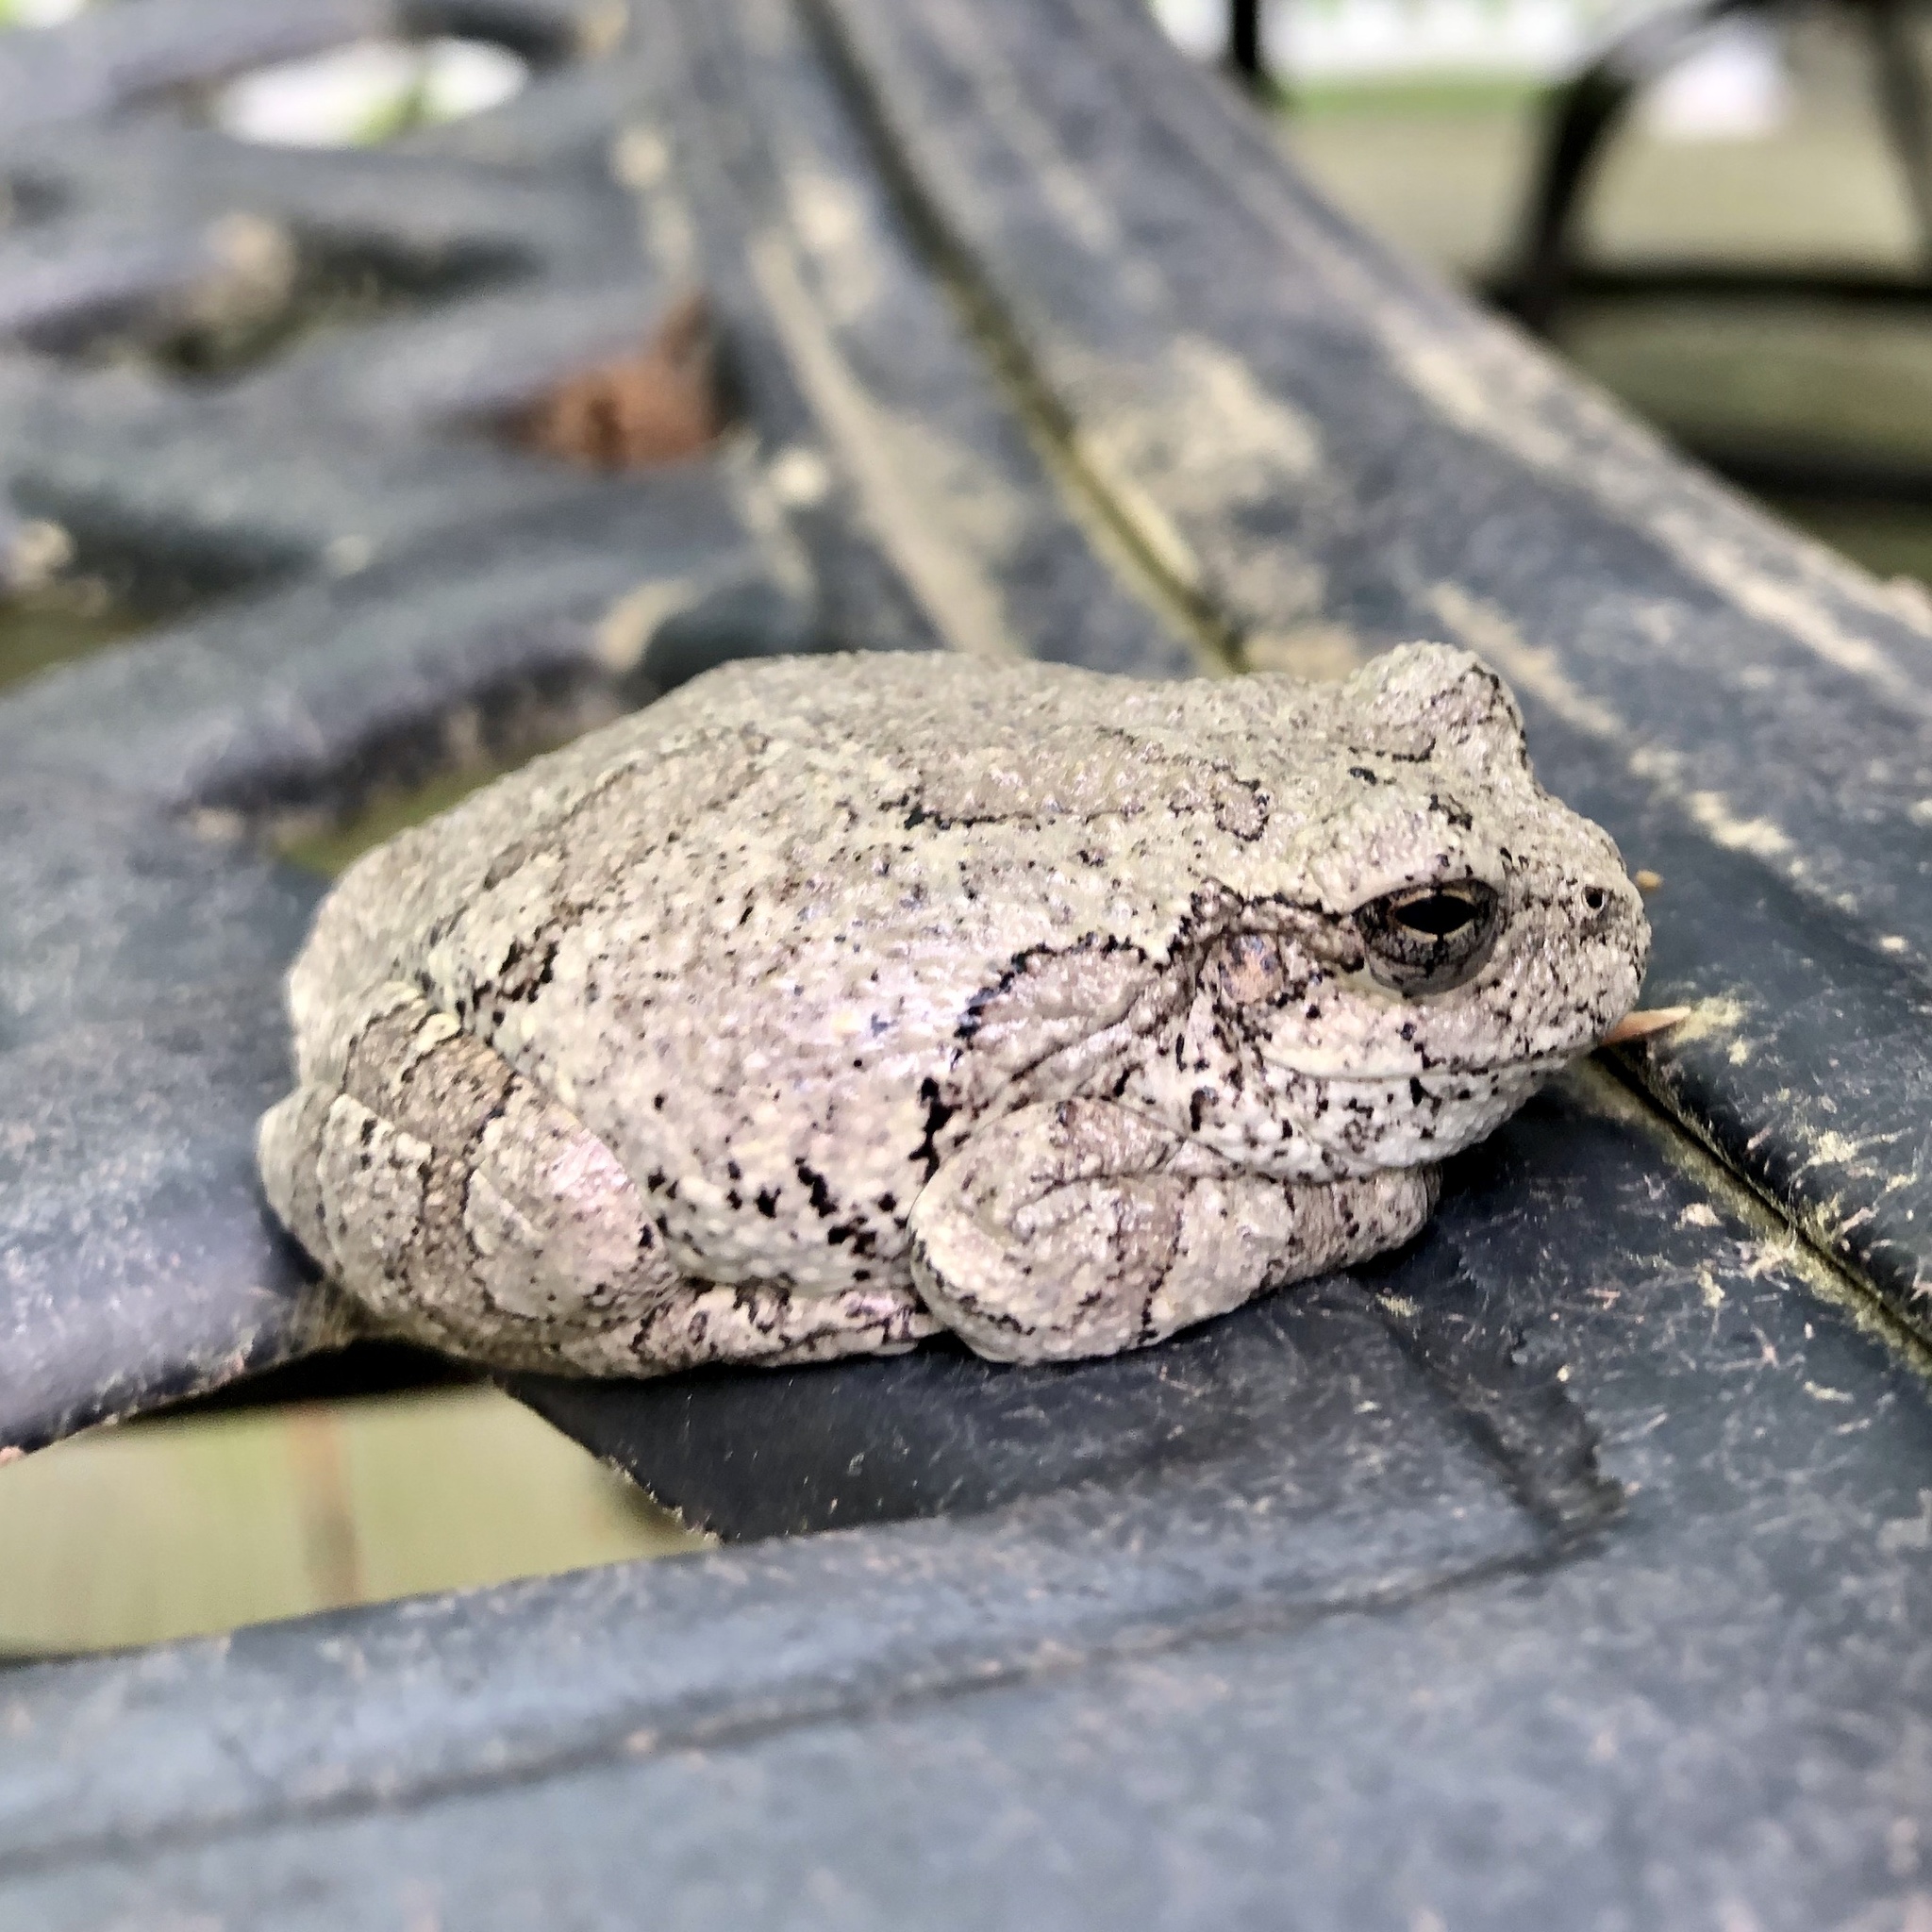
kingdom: Animalia
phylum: Chordata
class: Amphibia
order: Anura
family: Hylidae
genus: Hyla
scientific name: Hyla
